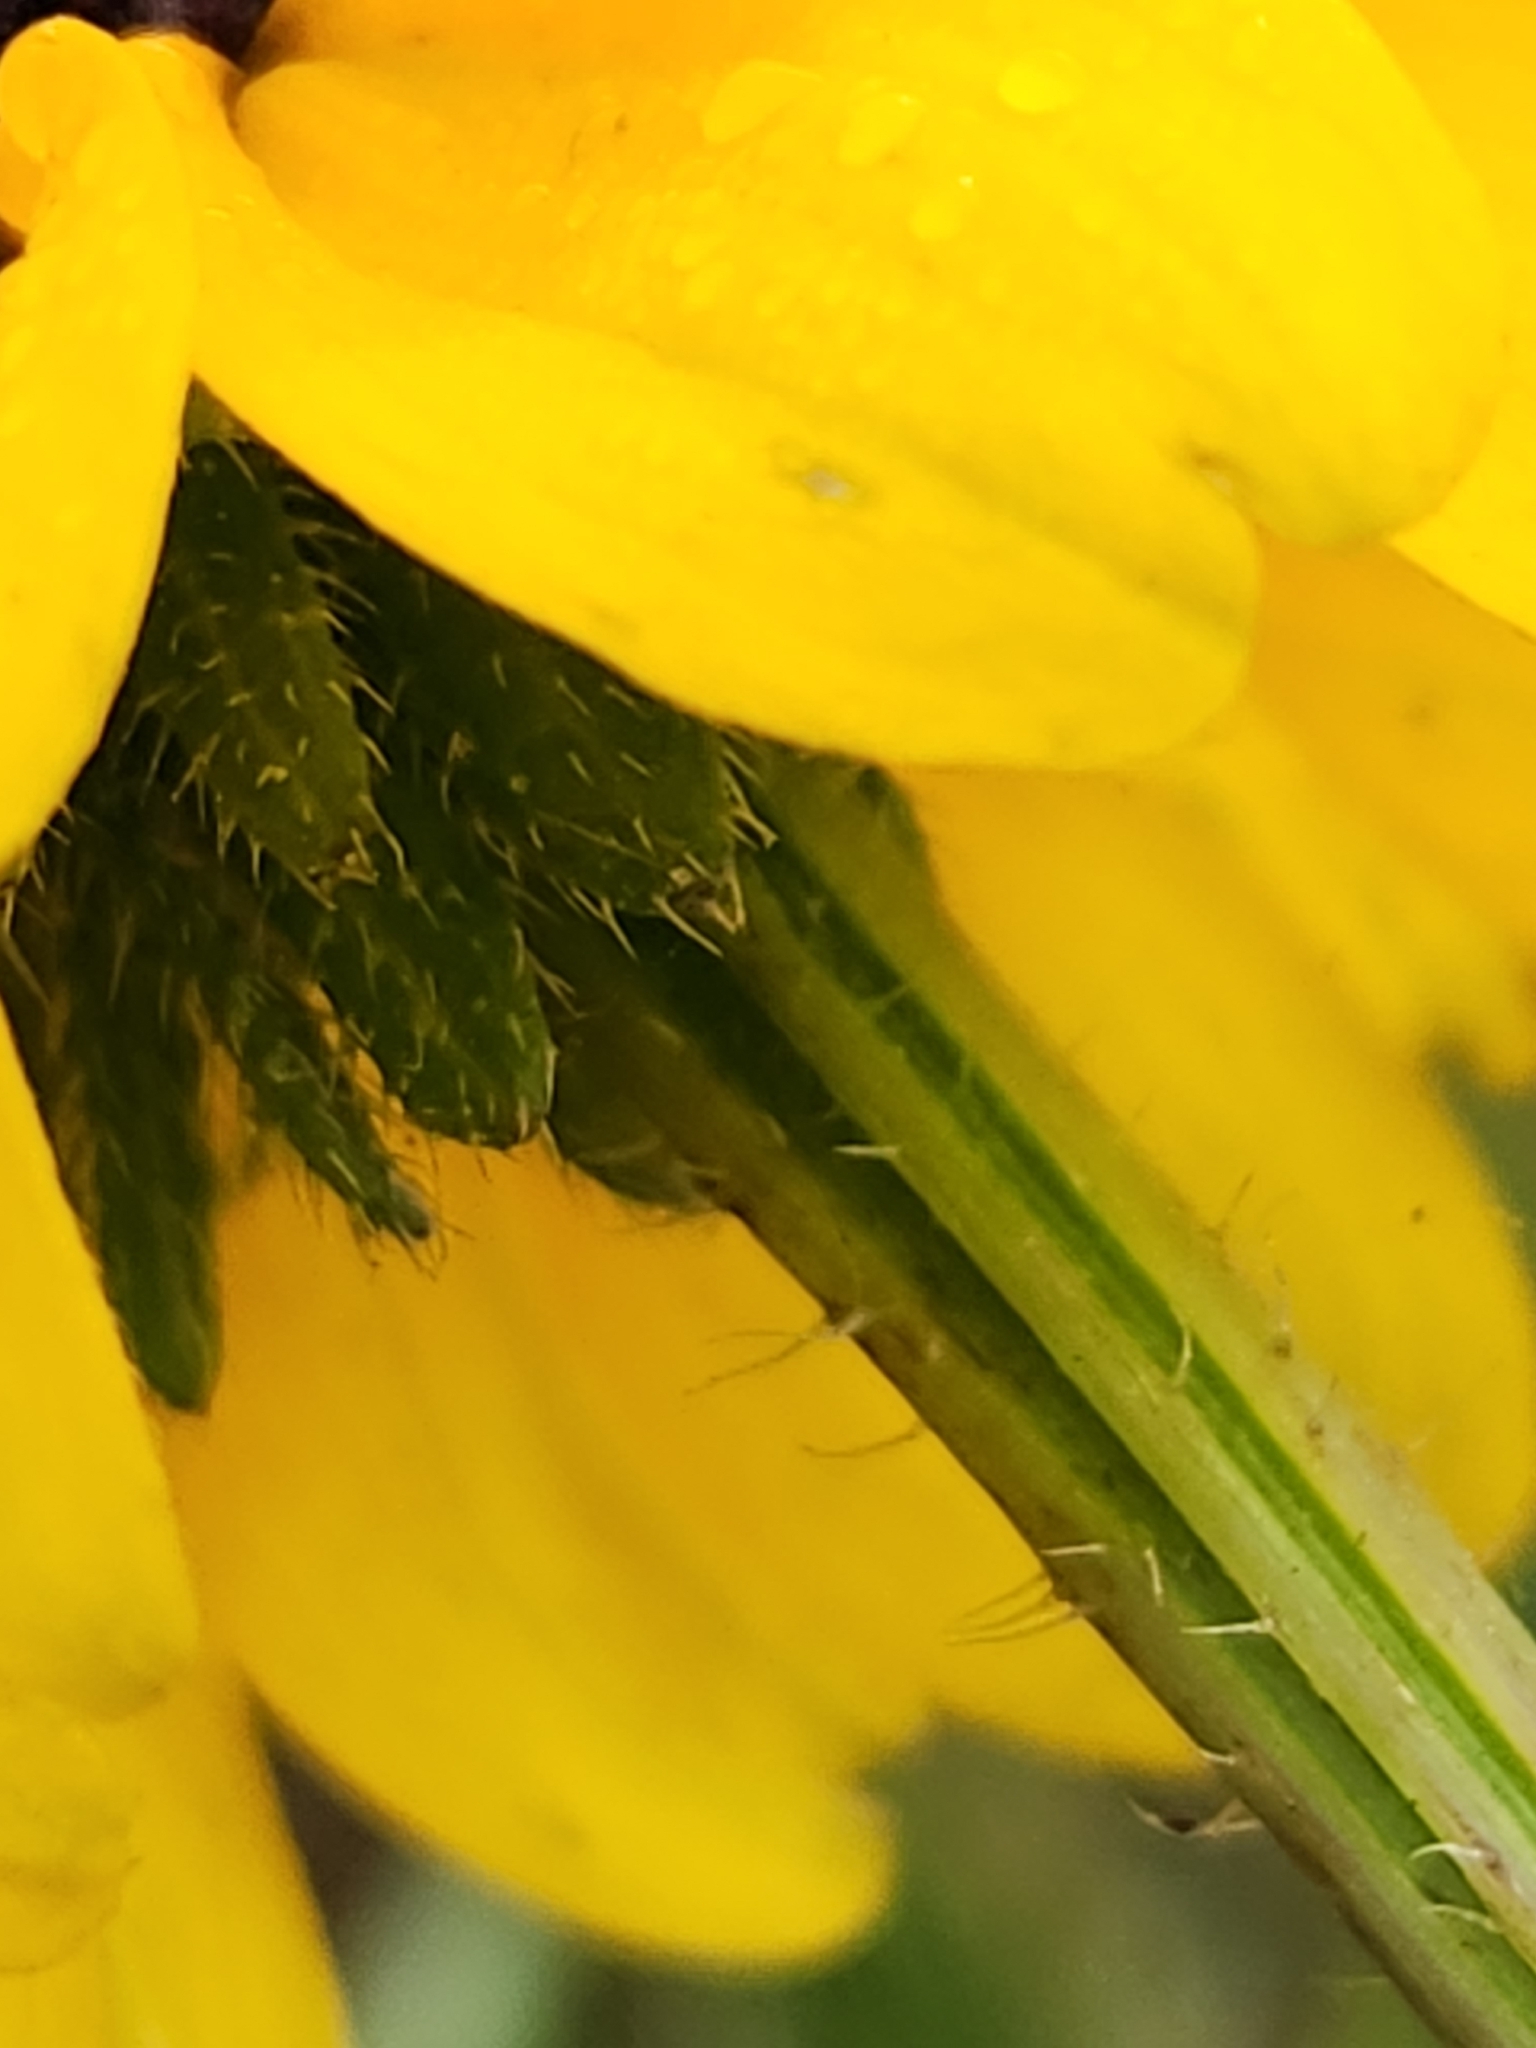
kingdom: Plantae
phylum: Tracheophyta
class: Magnoliopsida
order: Asterales
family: Asteraceae
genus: Rudbeckia
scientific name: Rudbeckia hirta
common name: Black-eyed-susan
